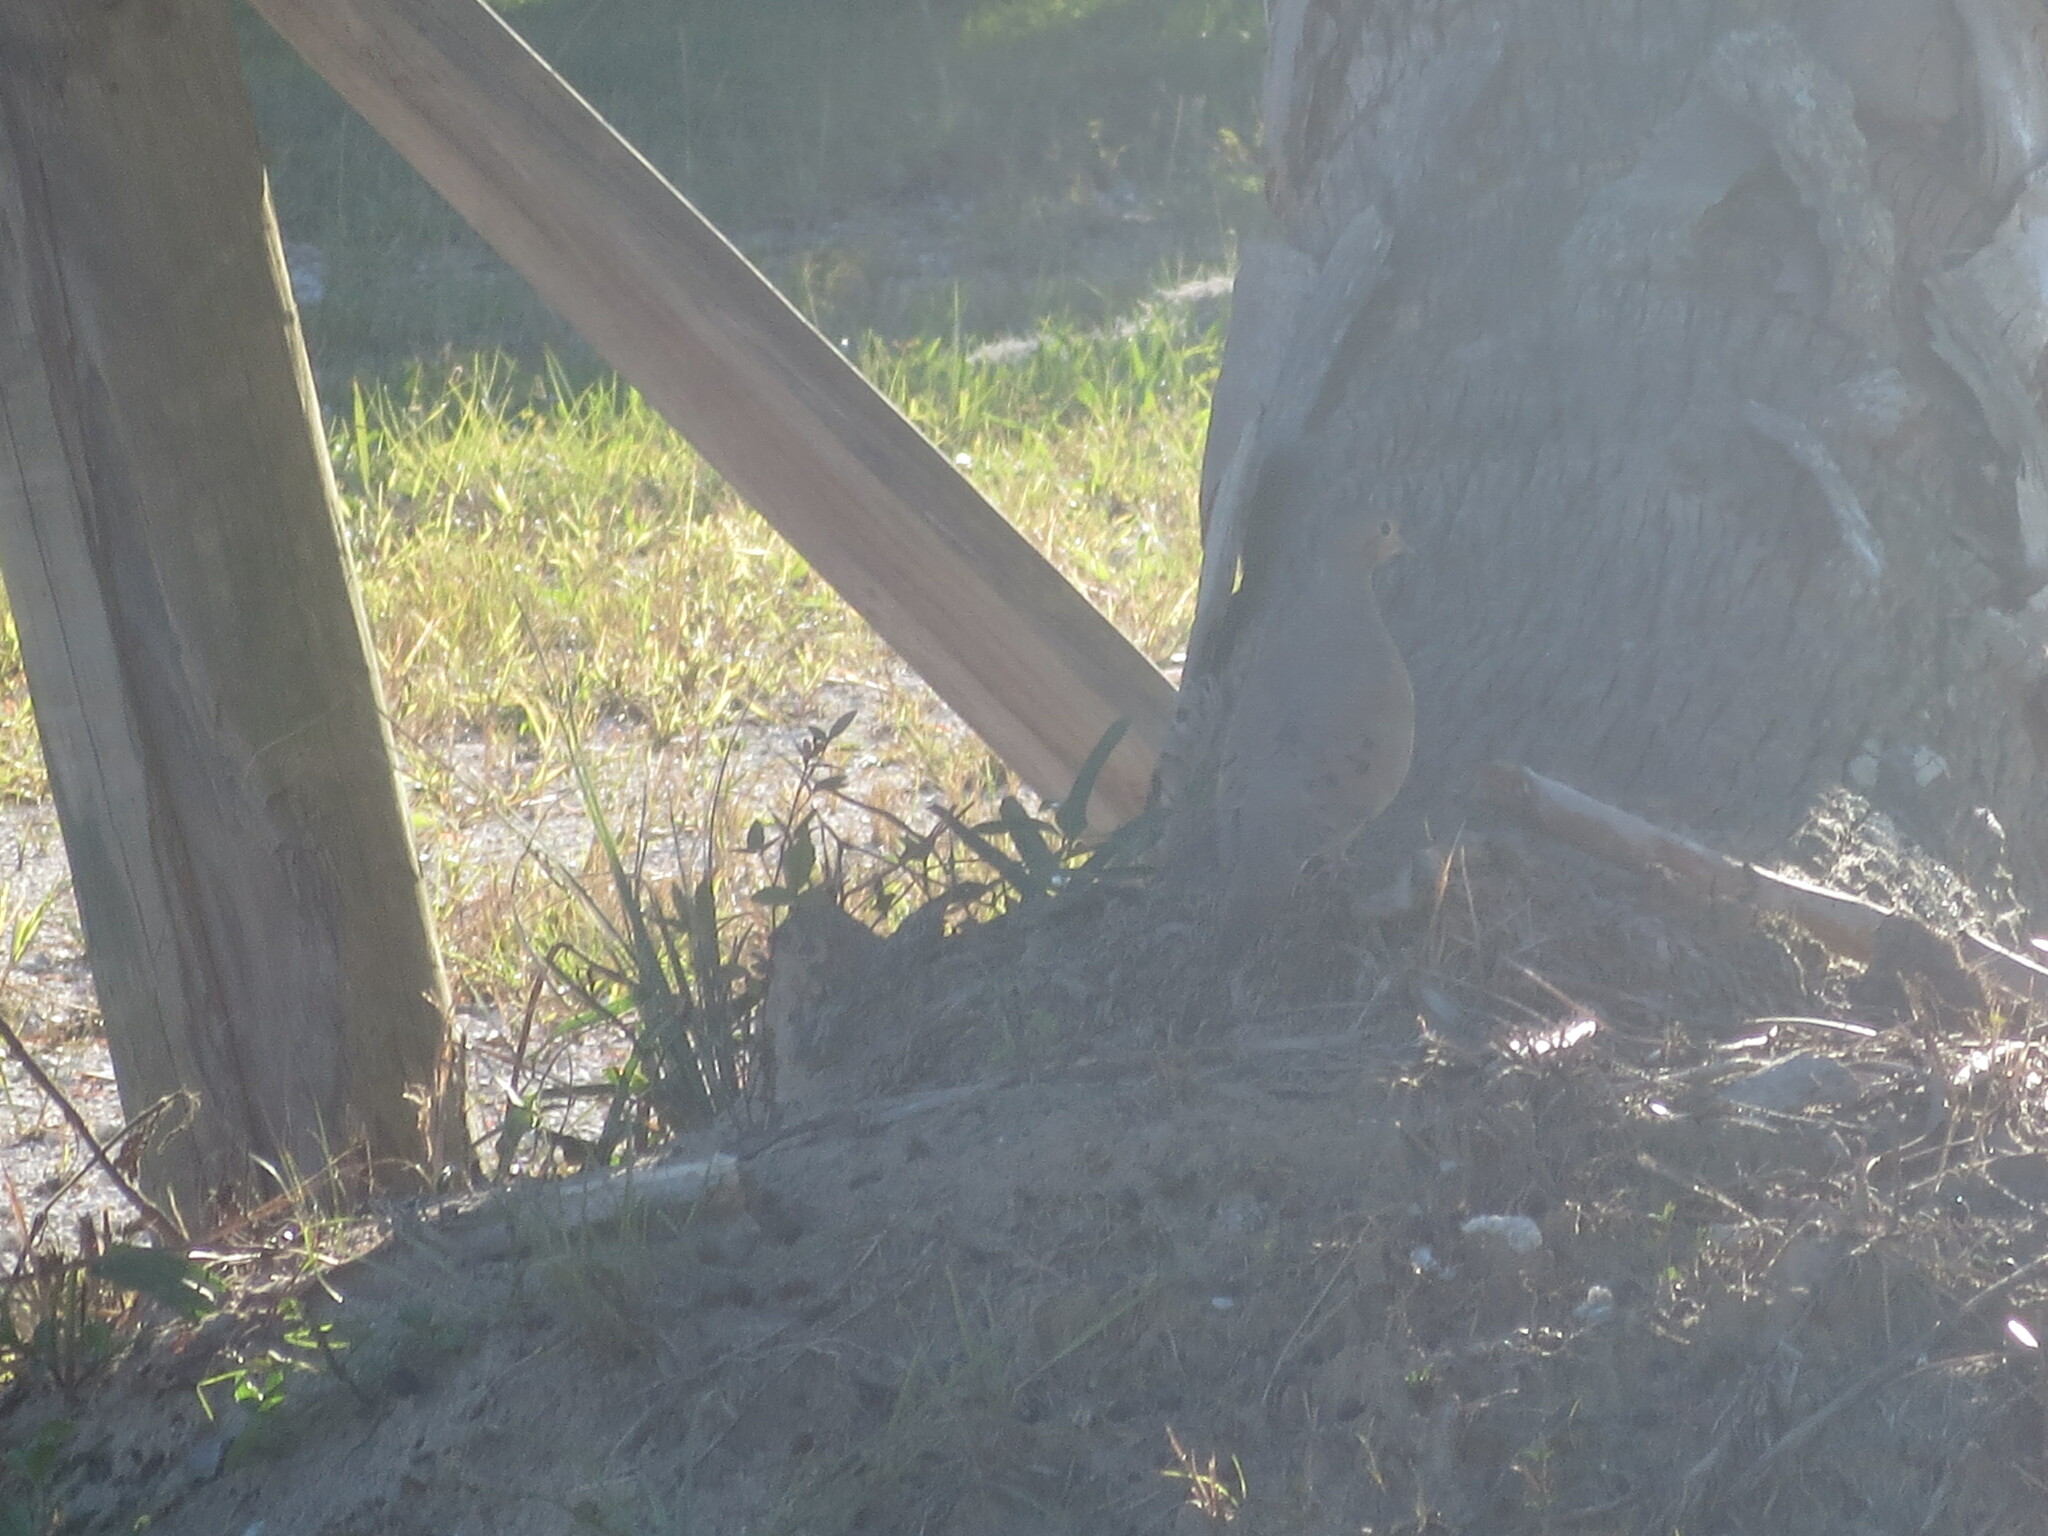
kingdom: Animalia
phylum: Chordata
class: Aves
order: Columbiformes
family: Columbidae
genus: Zenaida
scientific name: Zenaida macroura
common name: Mourning dove
